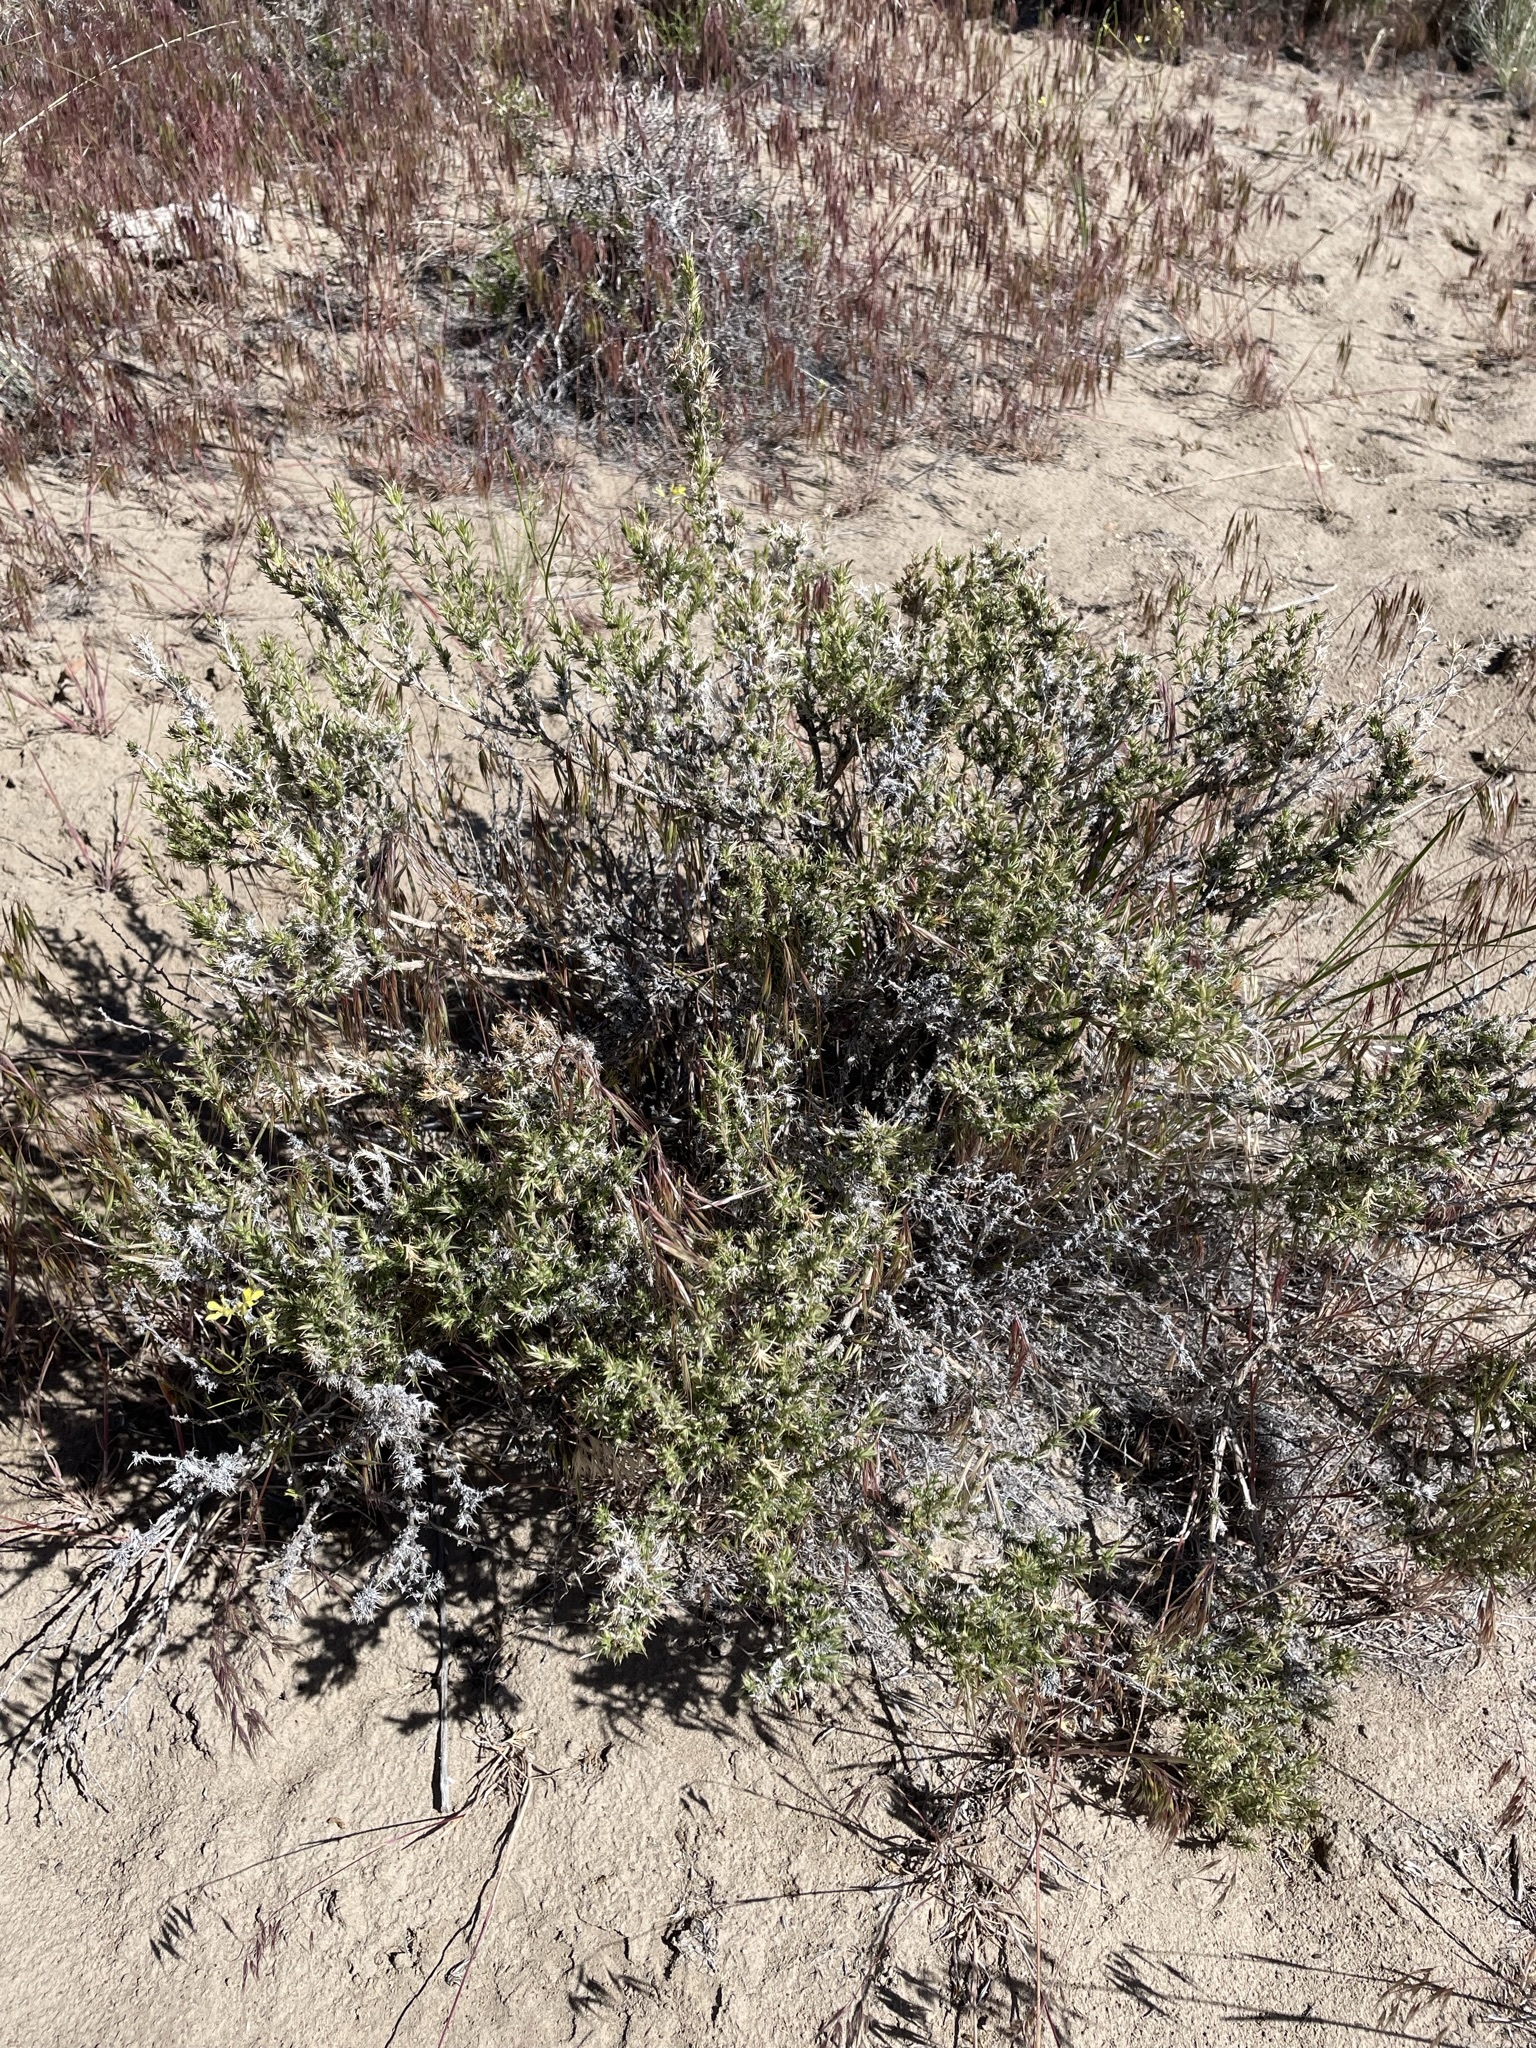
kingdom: Plantae
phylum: Tracheophyta
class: Magnoliopsida
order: Ericales
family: Polemoniaceae
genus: Linanthus
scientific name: Linanthus pungens
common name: Granite prickly phlox
